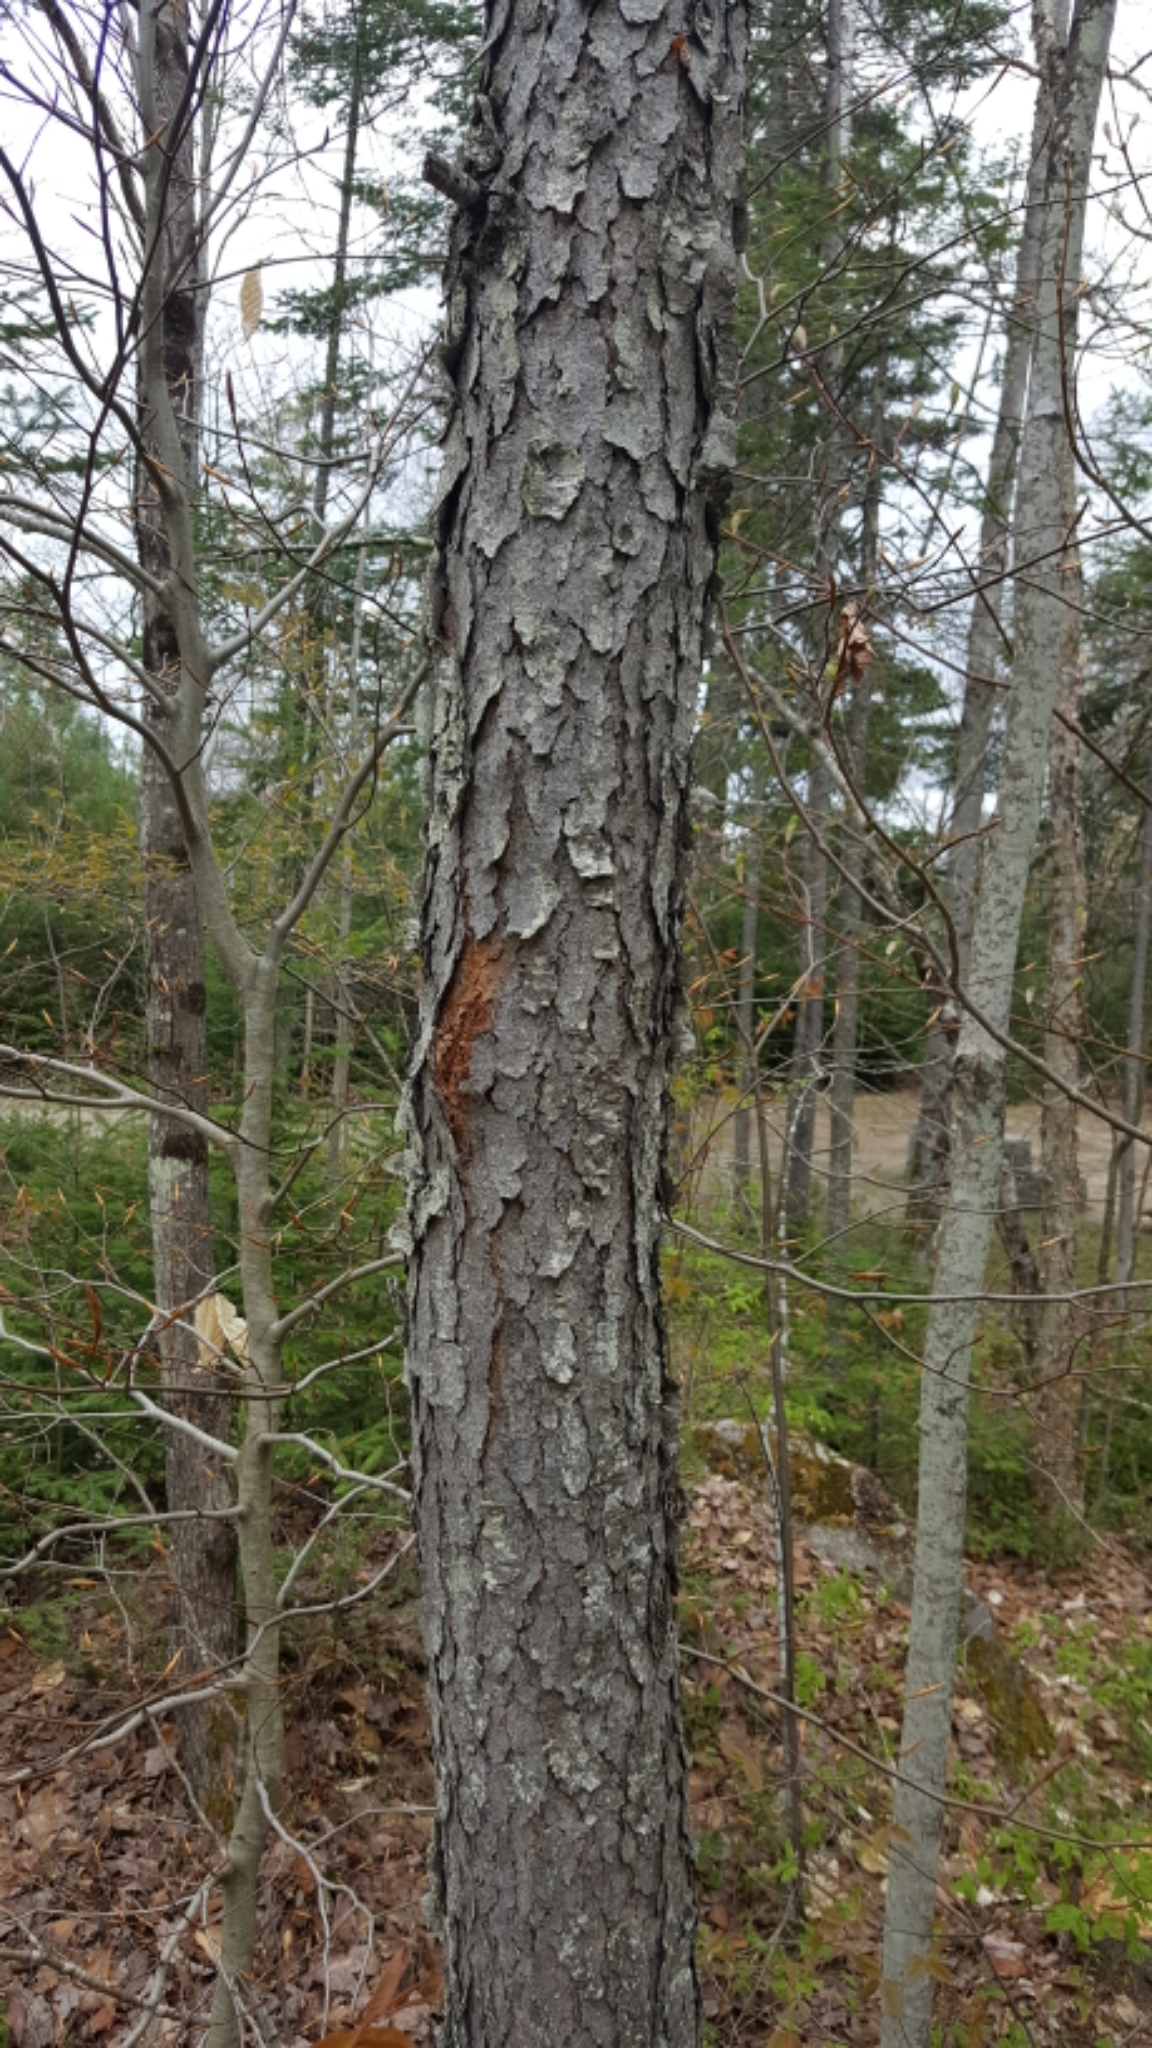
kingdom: Plantae
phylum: Tracheophyta
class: Magnoliopsida
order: Rosales
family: Rosaceae
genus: Prunus
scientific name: Prunus serotina
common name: Black cherry
